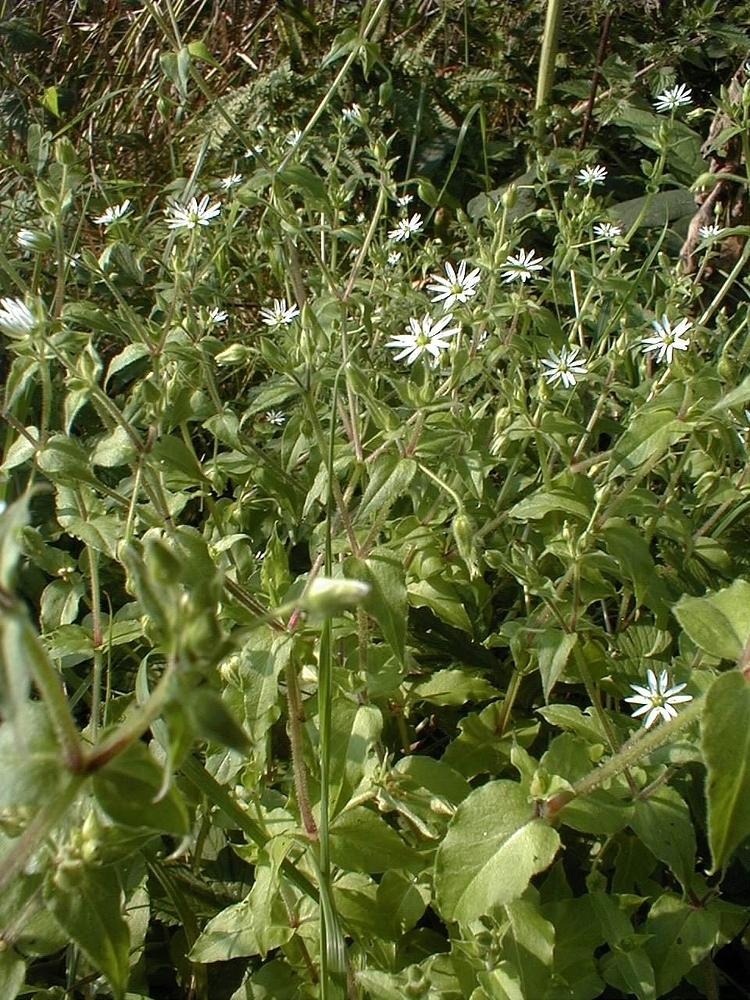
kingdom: Plantae
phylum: Tracheophyta
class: Magnoliopsida
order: Caryophyllales
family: Caryophyllaceae
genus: Stellaria
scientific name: Stellaria aquatica
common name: Water chickweed
